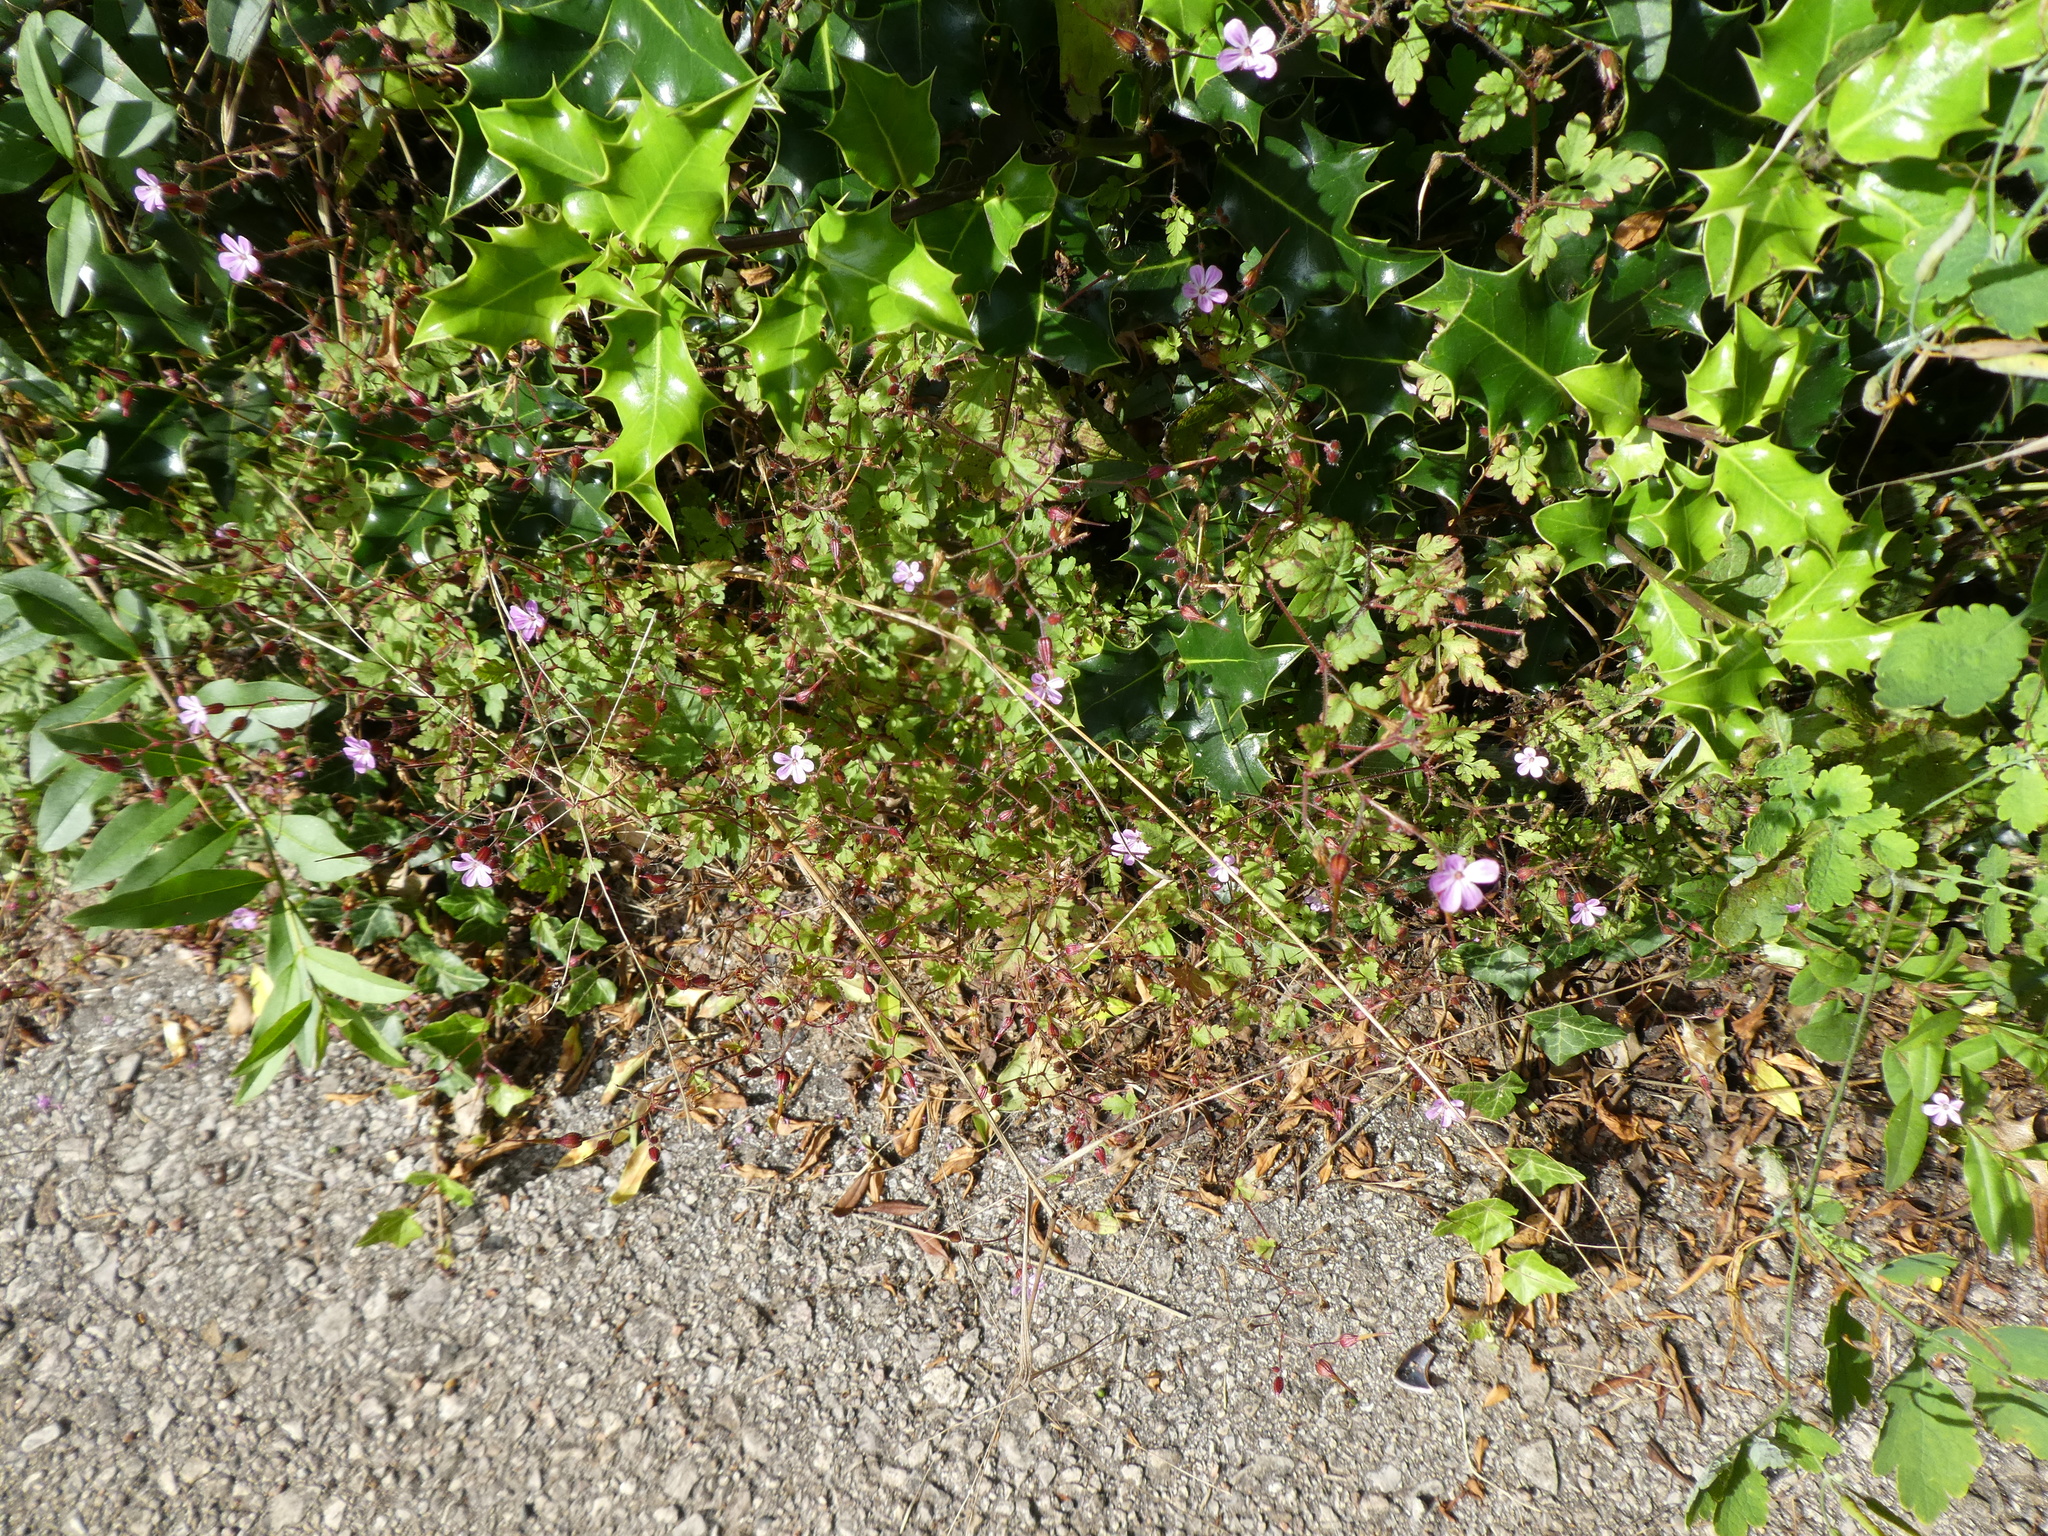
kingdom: Plantae
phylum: Tracheophyta
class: Magnoliopsida
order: Geraniales
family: Geraniaceae
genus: Geranium
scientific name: Geranium robertianum
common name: Herb-robert
